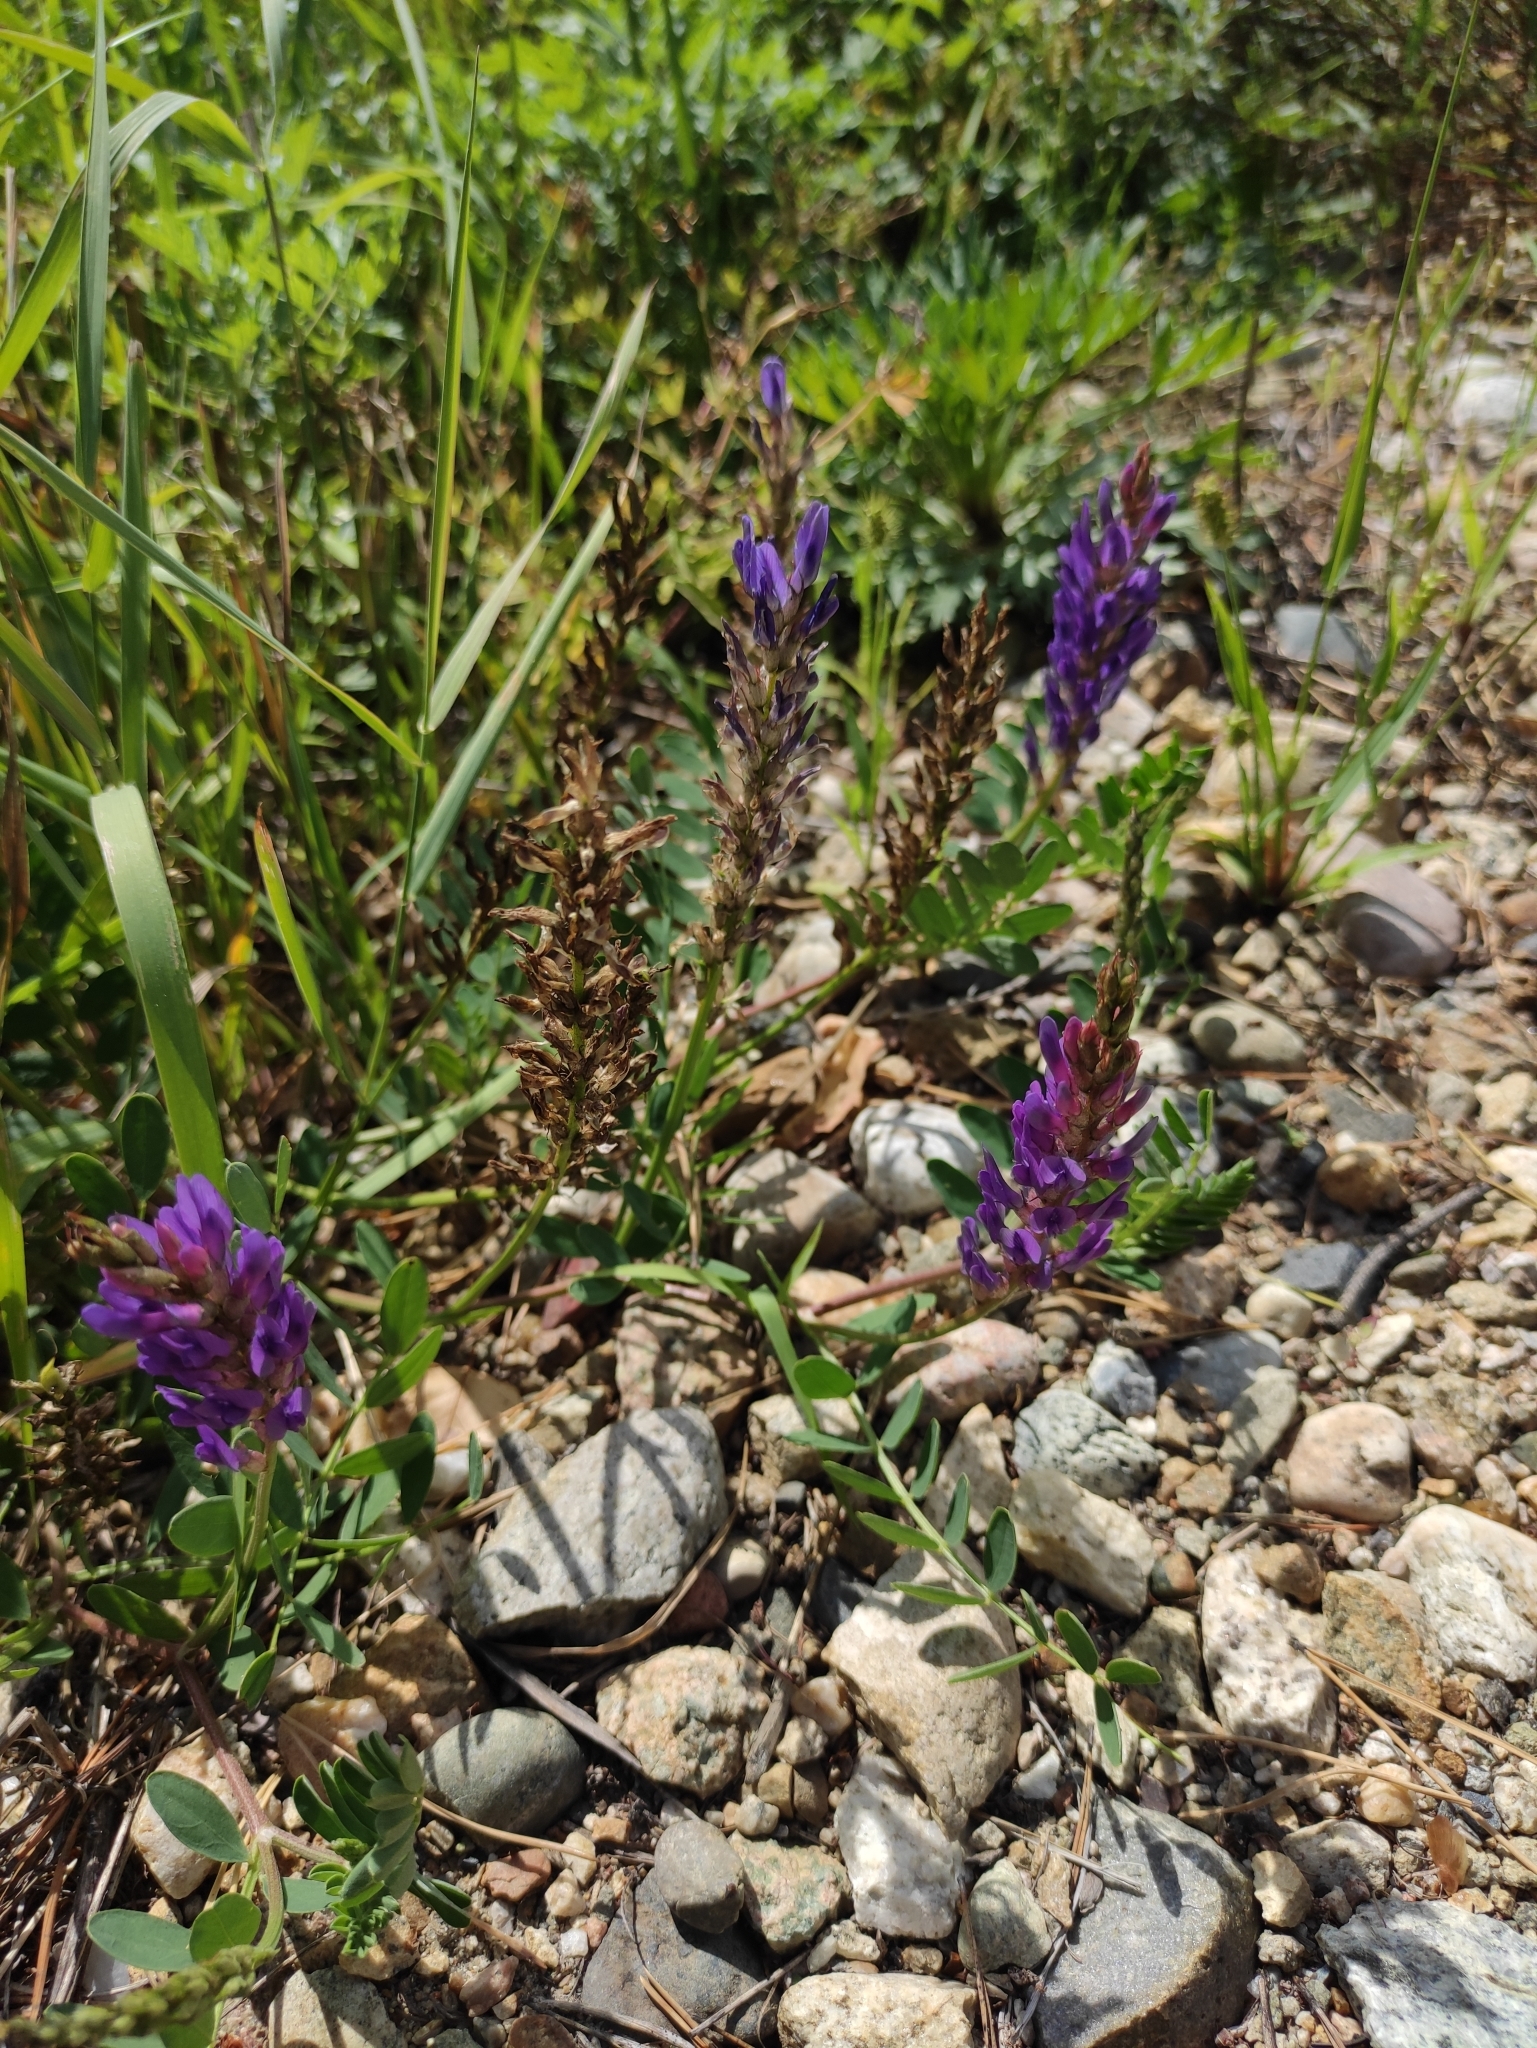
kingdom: Plantae
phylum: Tracheophyta
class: Magnoliopsida
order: Fabales
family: Fabaceae
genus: Astragalus
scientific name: Astragalus laxmannii
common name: Laxmann's milk-vetch
